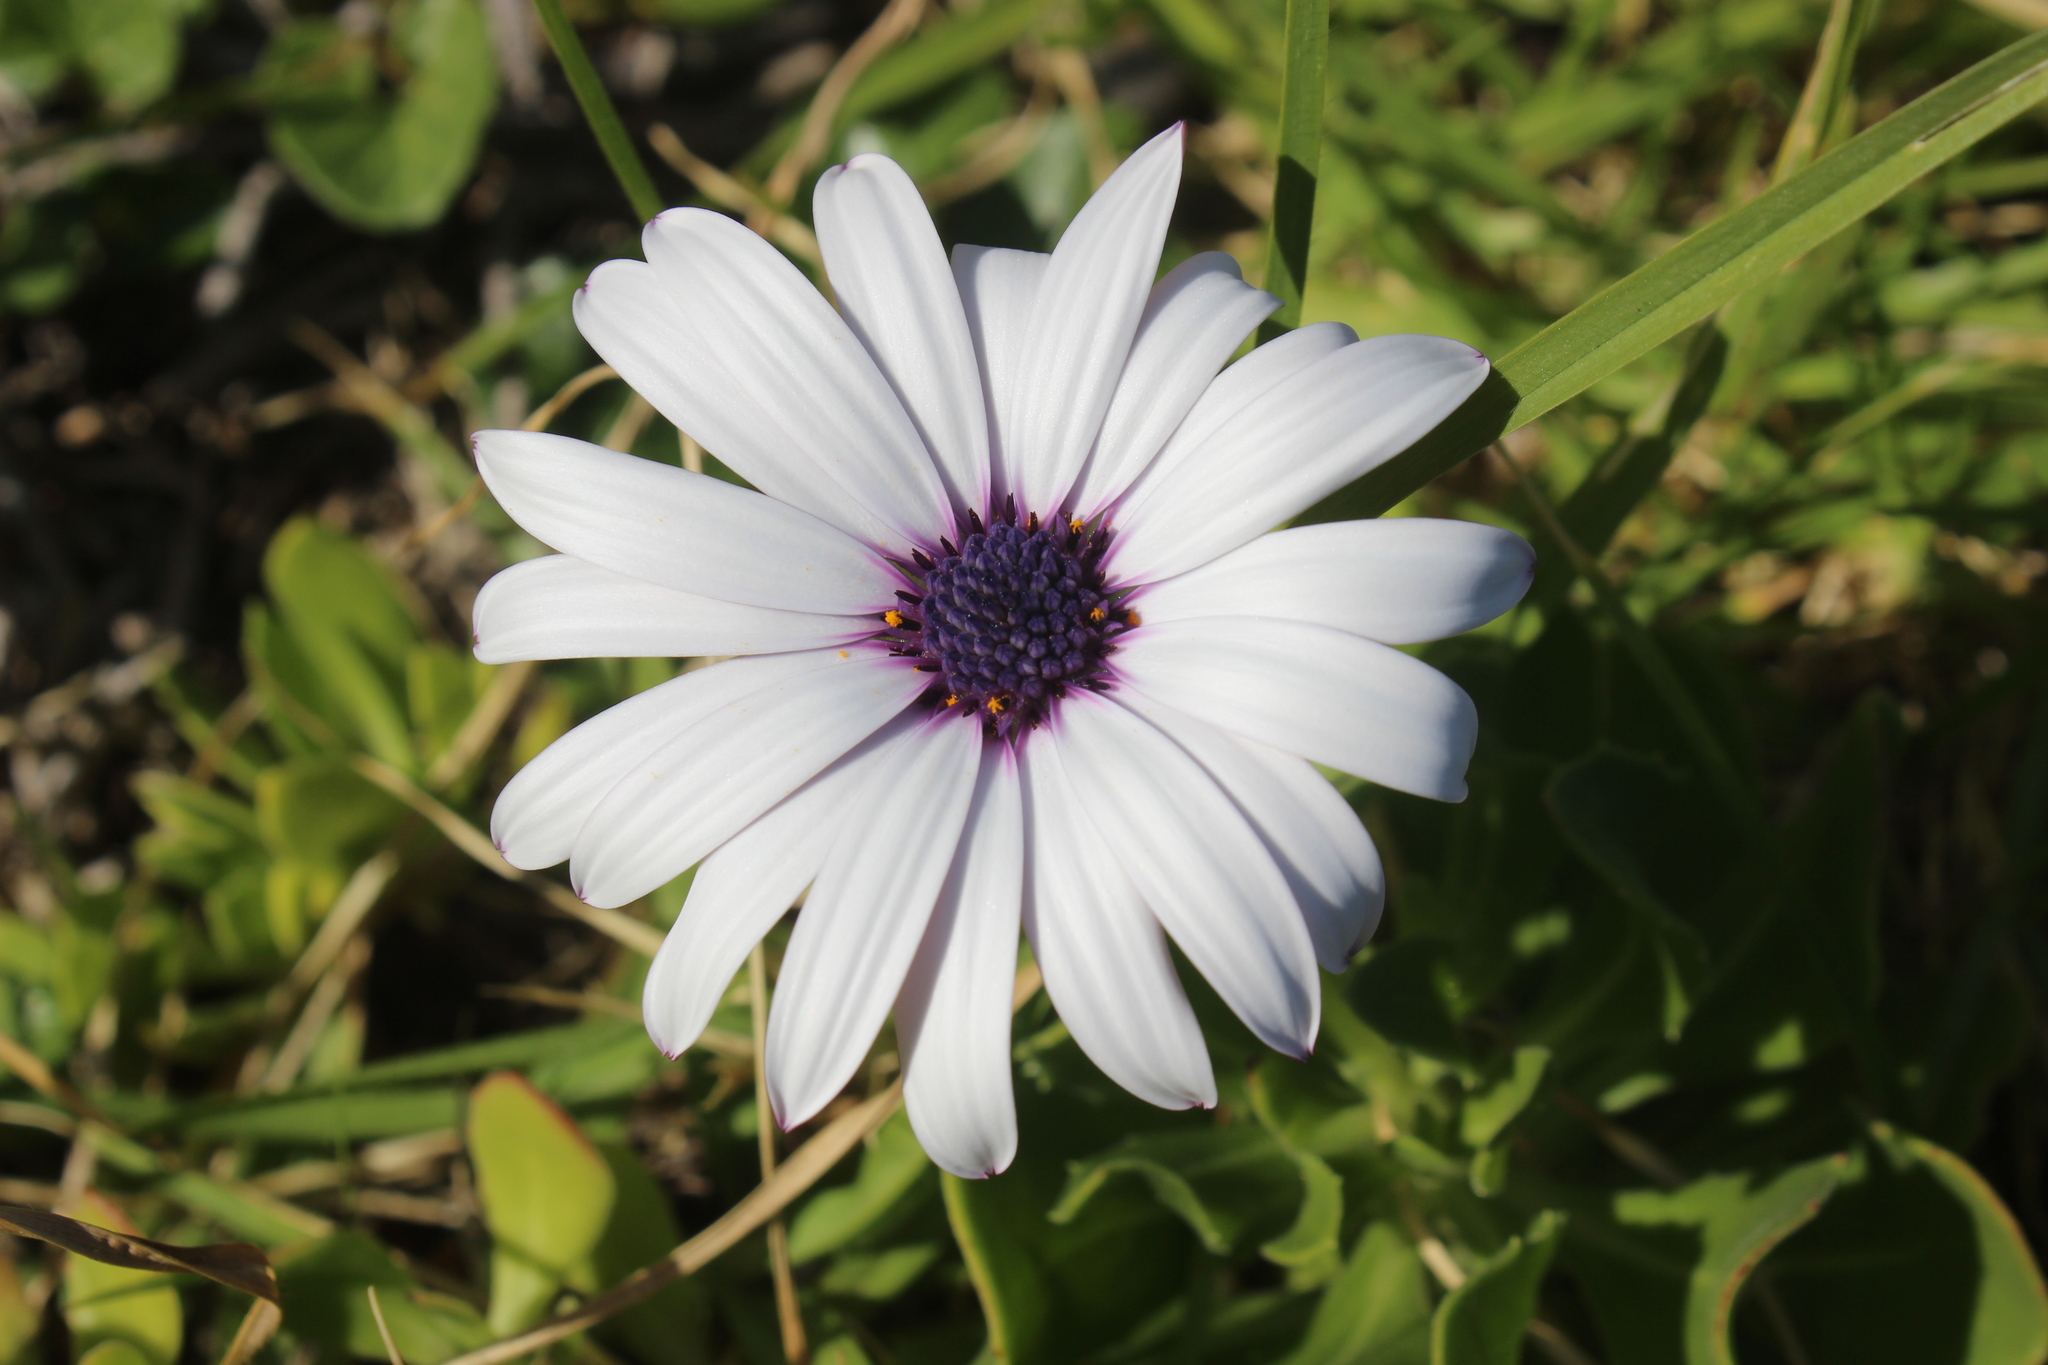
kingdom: Plantae
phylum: Tracheophyta
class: Magnoliopsida
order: Asterales
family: Asteraceae
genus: Dimorphotheca
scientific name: Dimorphotheca fruticosa
